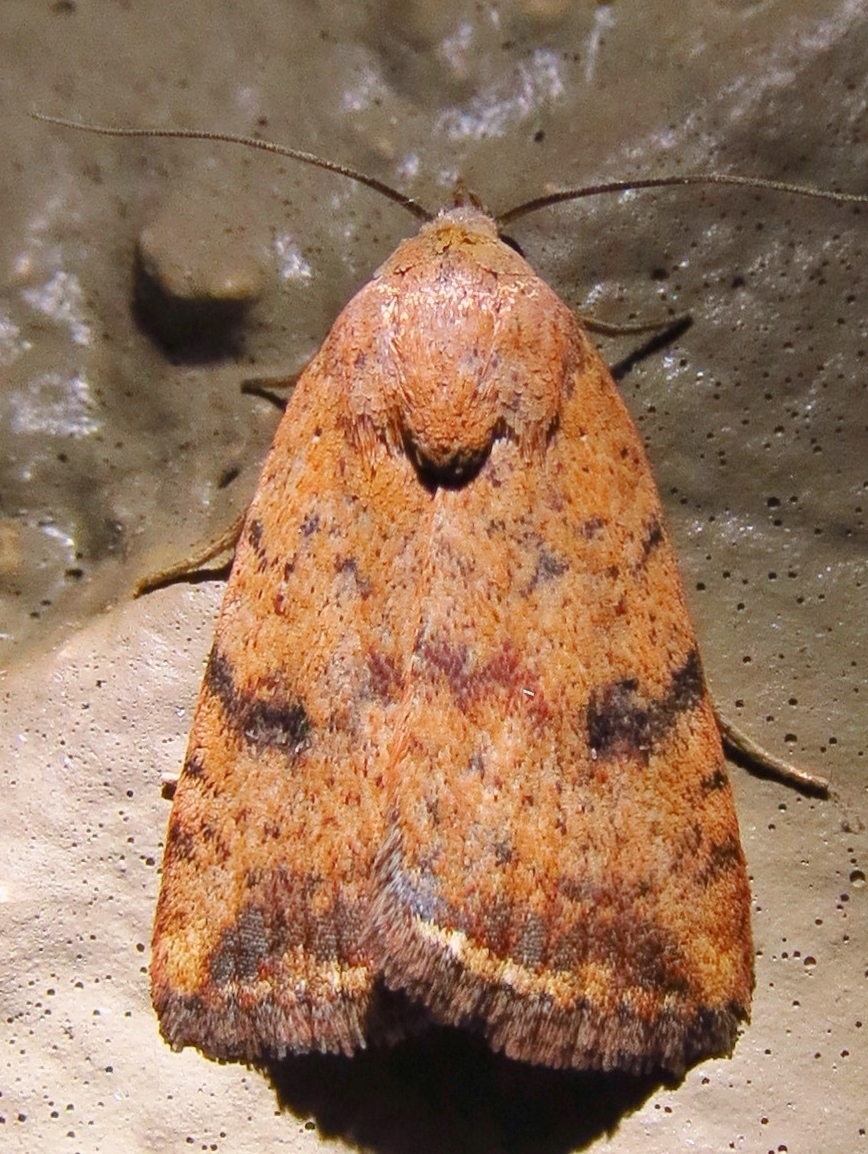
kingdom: Animalia
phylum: Arthropoda
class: Insecta
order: Lepidoptera
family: Noctuidae
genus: Micrathetis
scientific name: Micrathetis triplex
